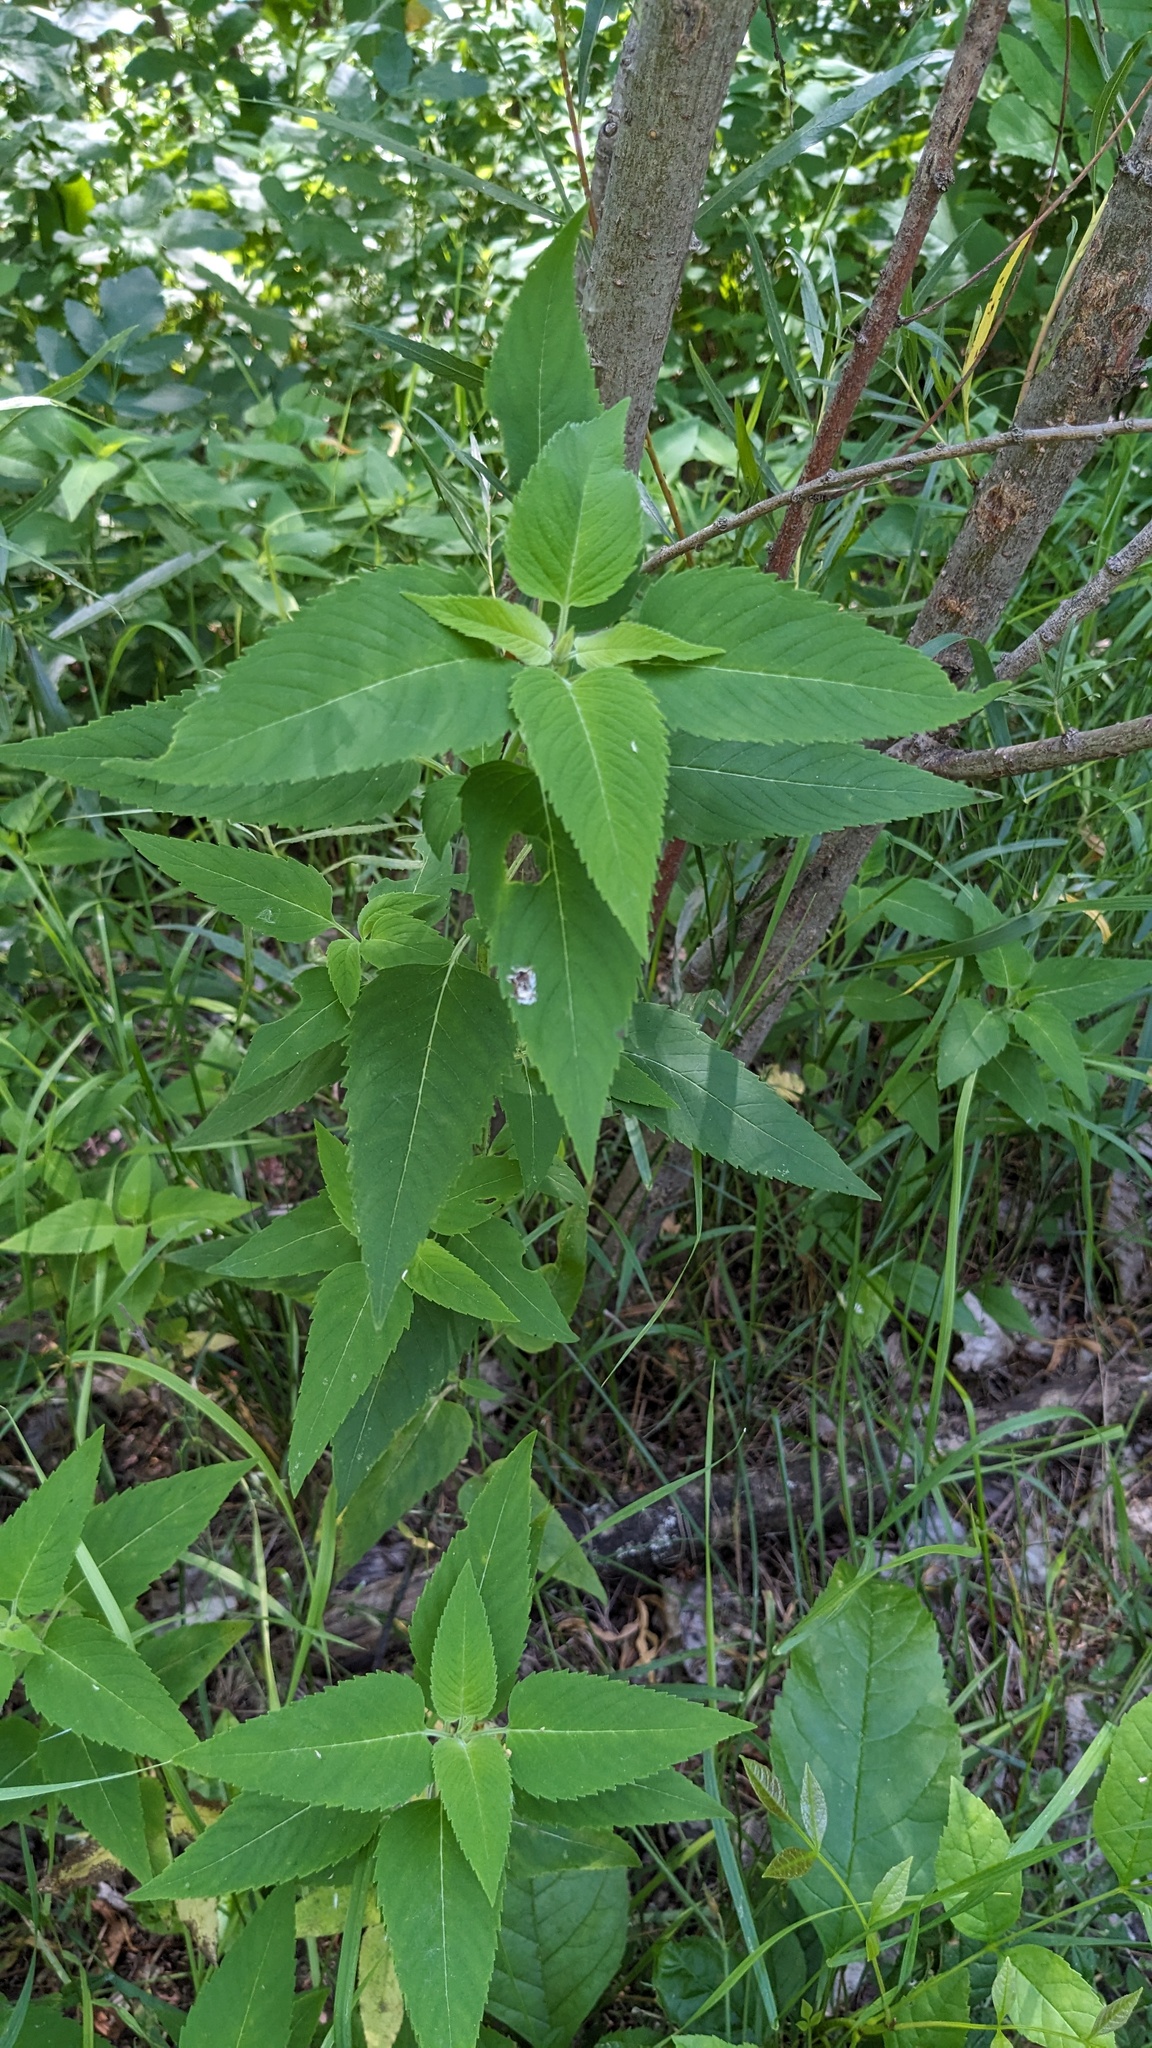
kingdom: Plantae
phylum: Tracheophyta
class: Magnoliopsida
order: Lamiales
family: Lamiaceae
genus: Monarda
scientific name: Monarda fistulosa
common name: Purple beebalm
